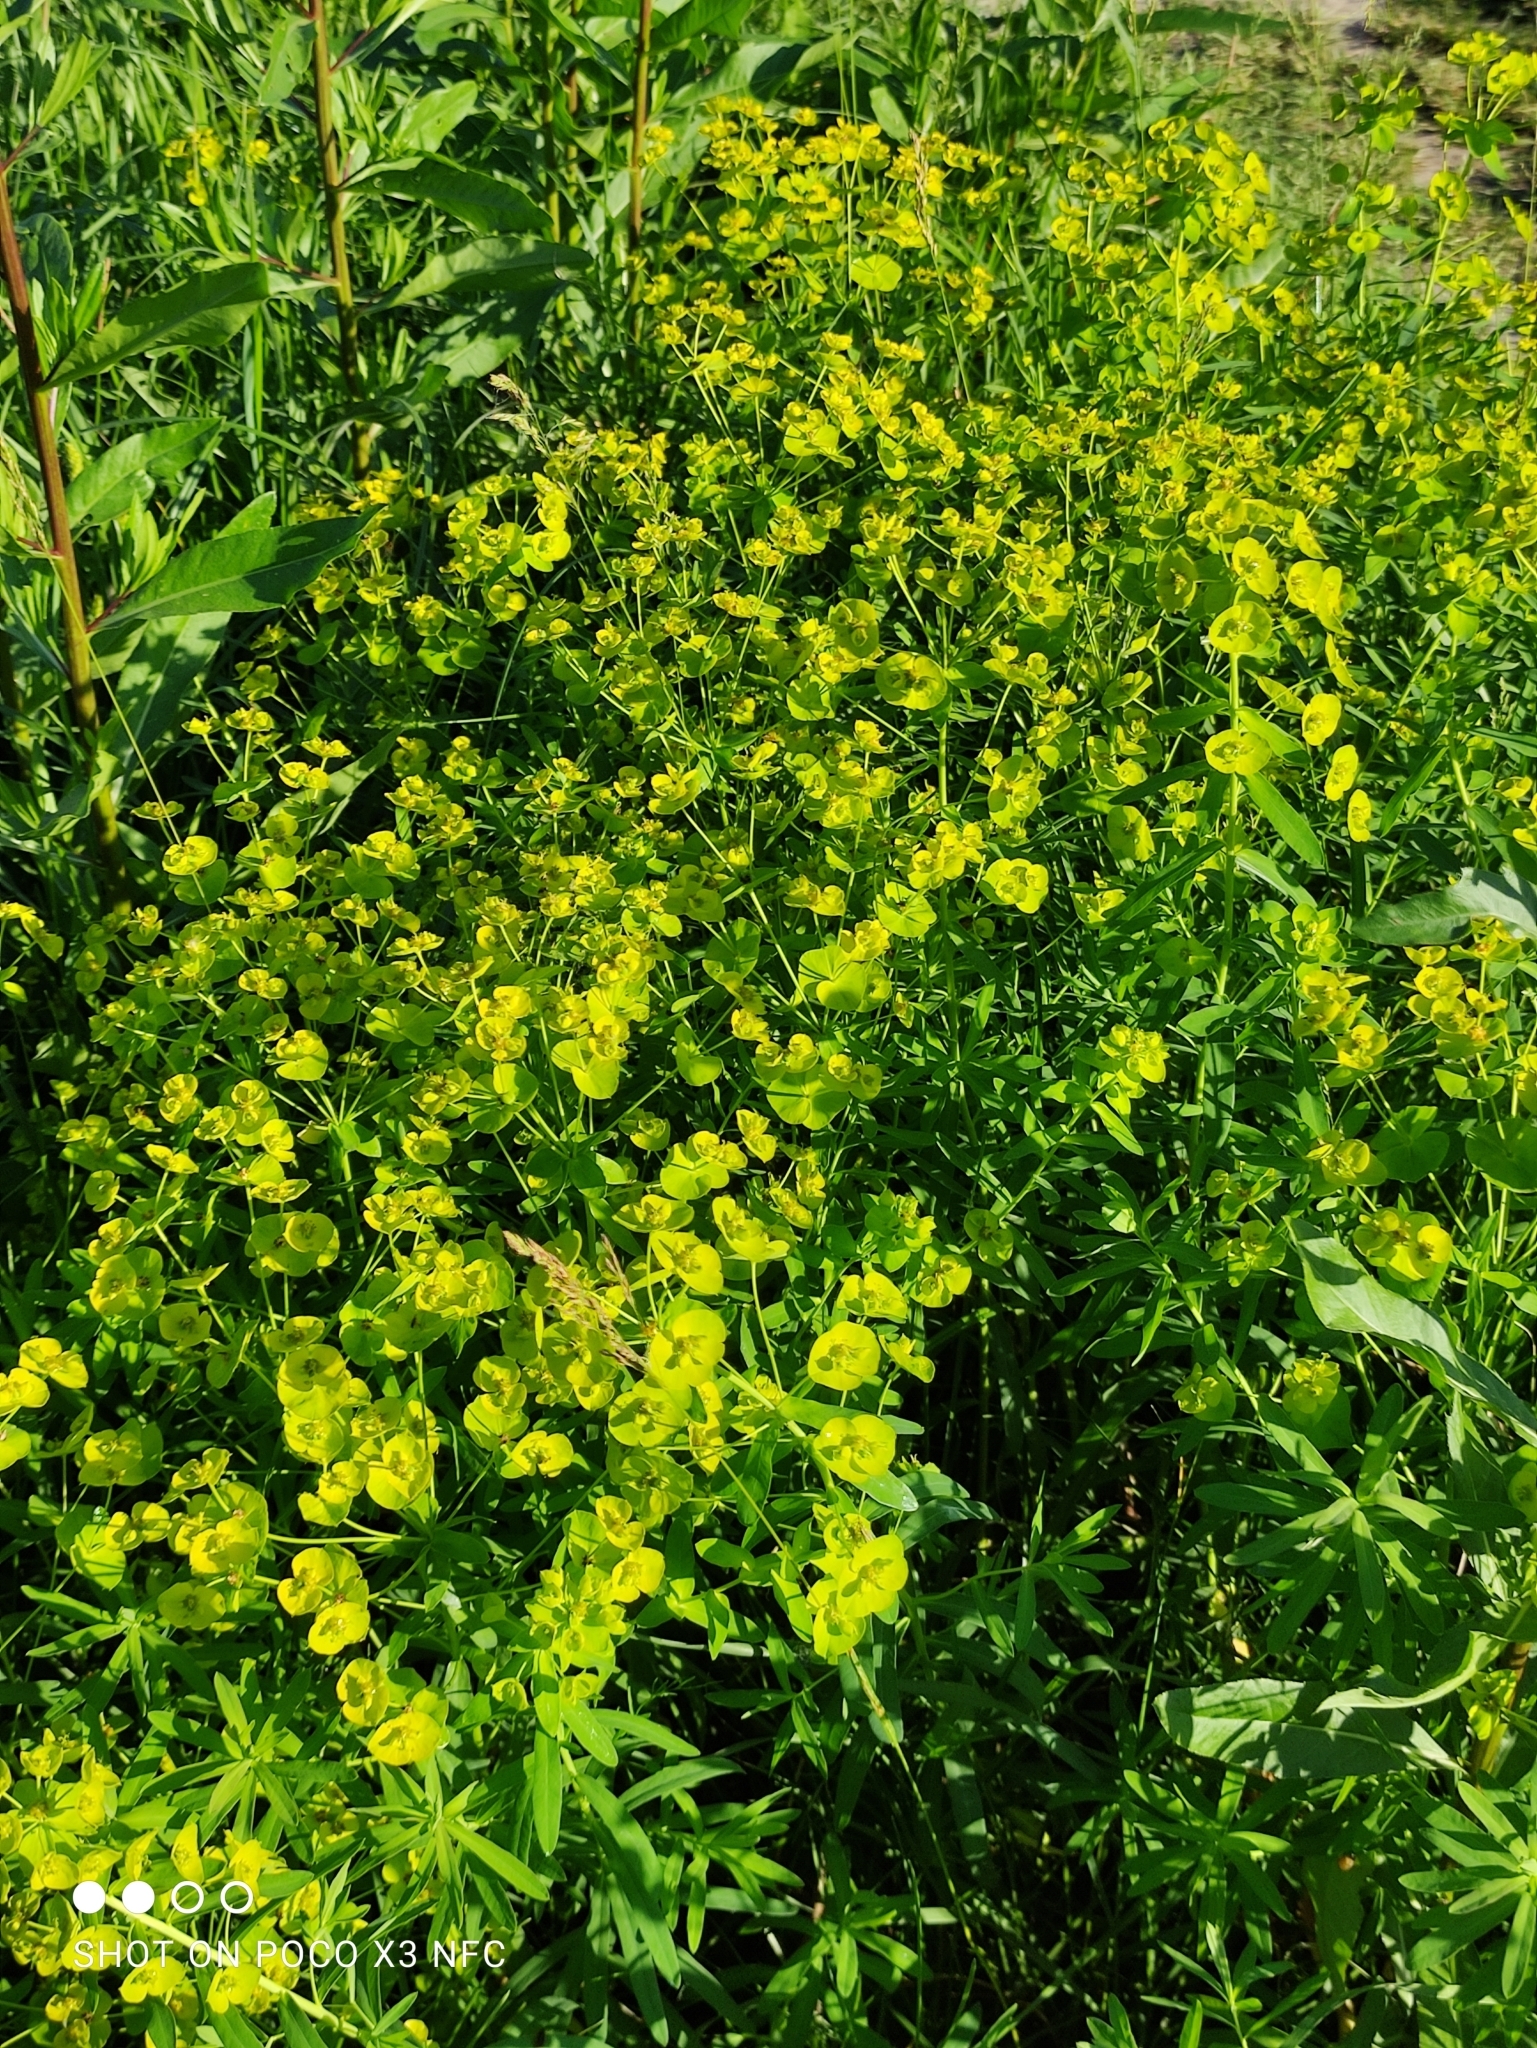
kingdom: Plantae
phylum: Tracheophyta
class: Magnoliopsida
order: Malpighiales
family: Euphorbiaceae
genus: Euphorbia
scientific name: Euphorbia virgata
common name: Leafy spurge
